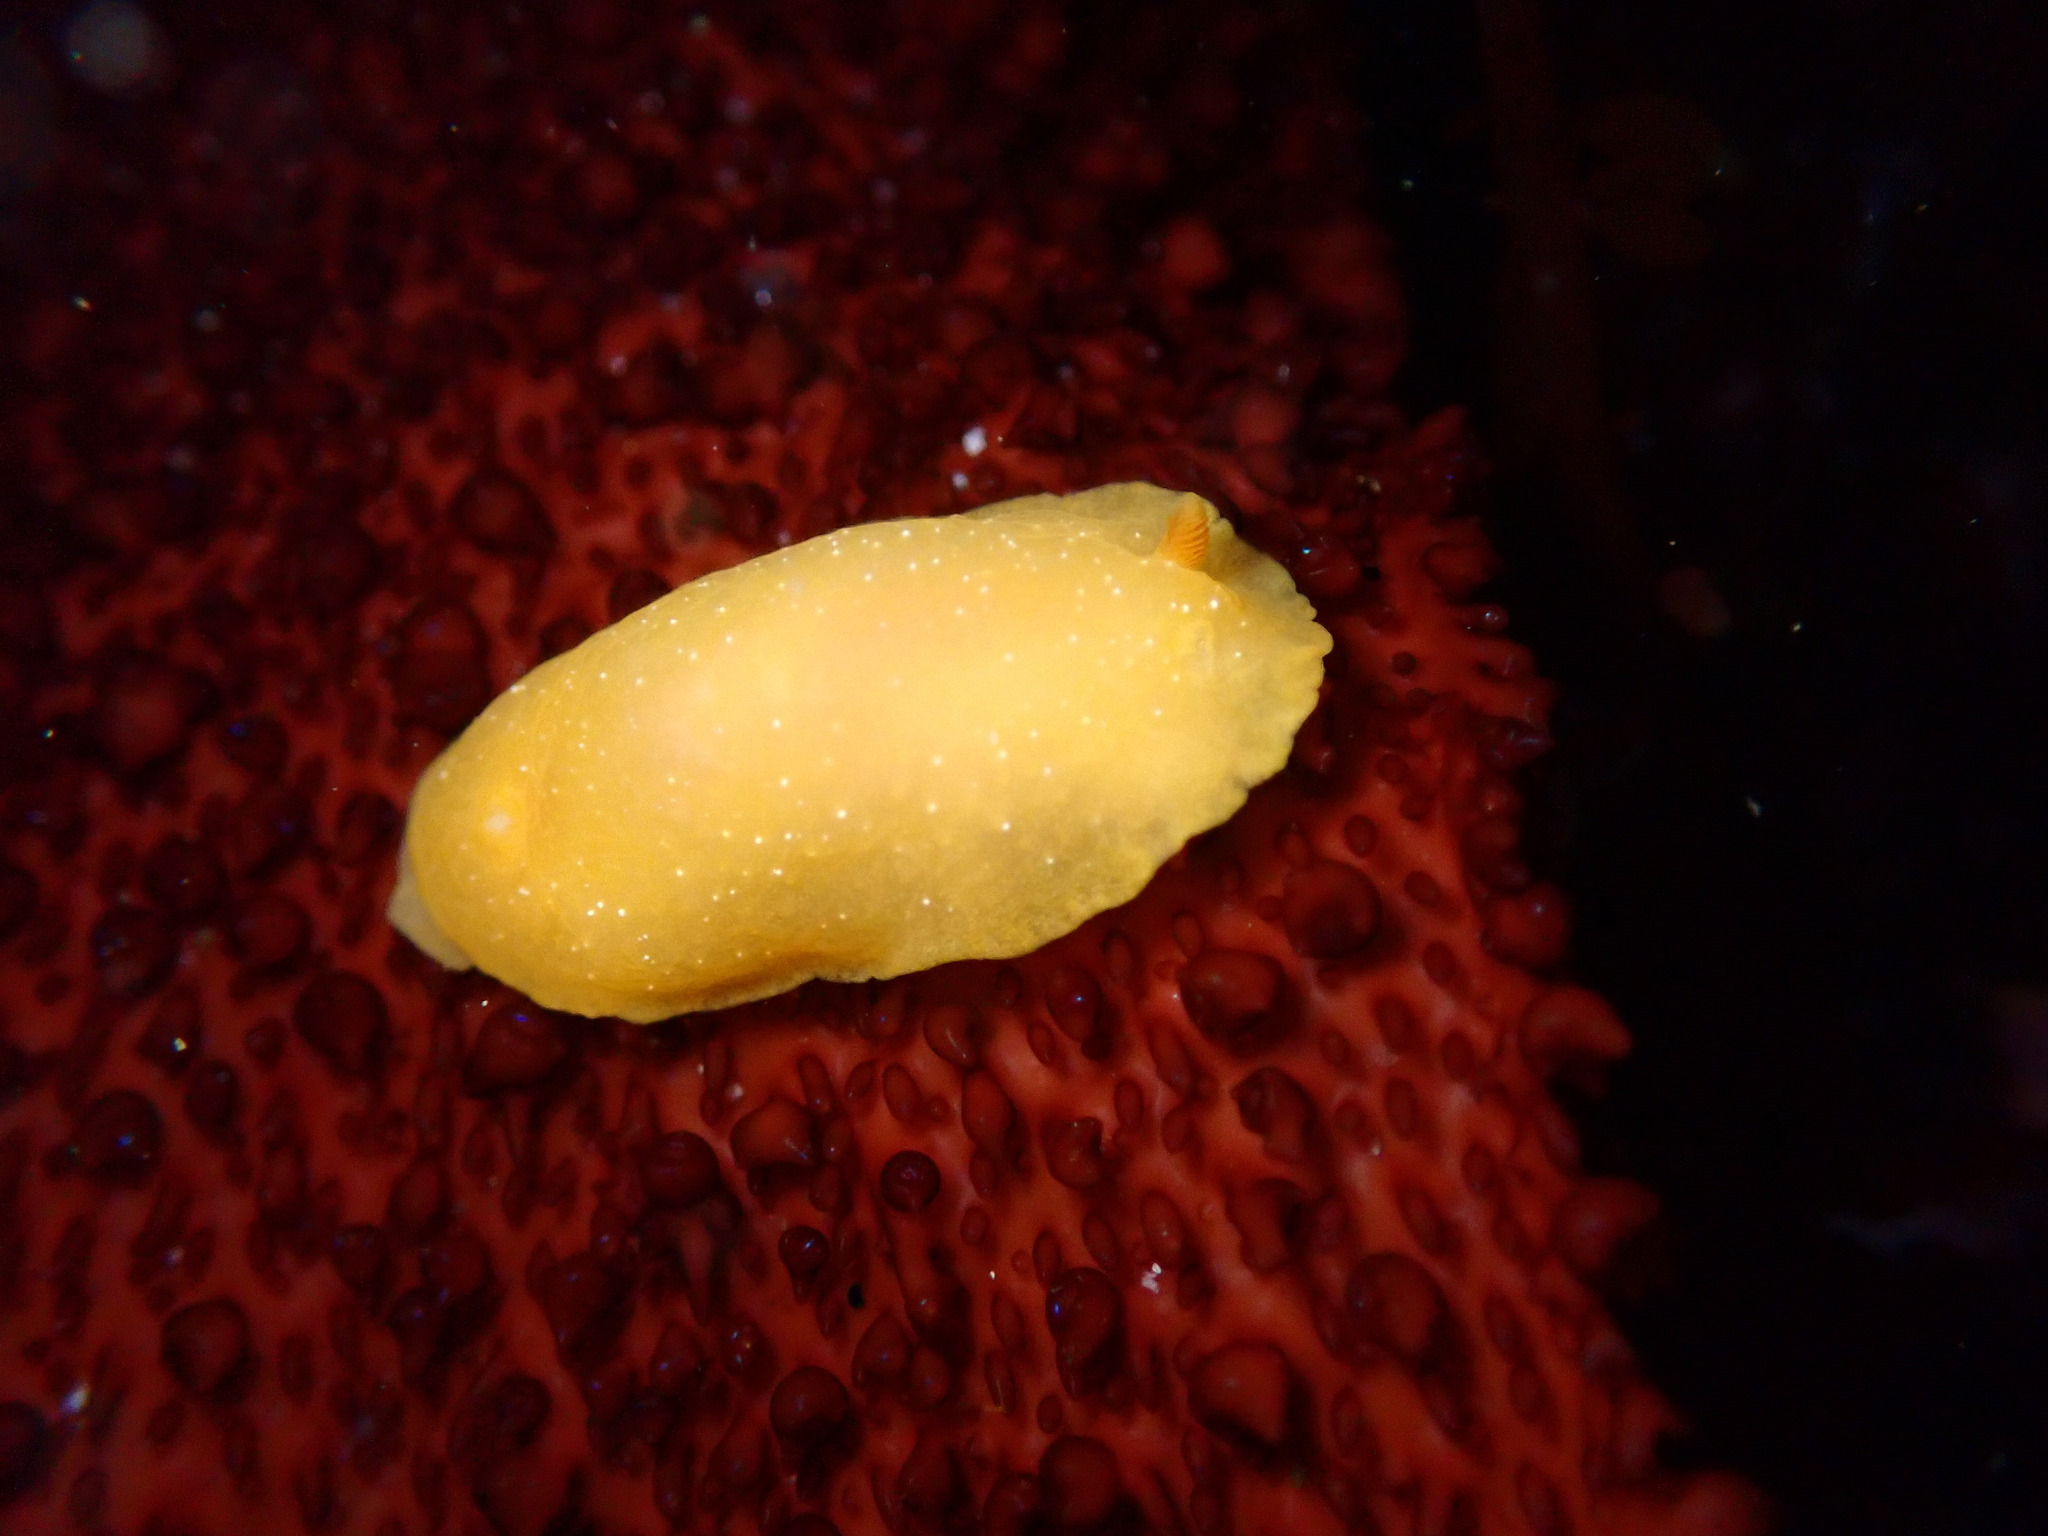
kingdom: Animalia
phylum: Mollusca
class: Gastropoda
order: Nudibranchia
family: Dendrodorididae
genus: Doriopsilla
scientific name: Doriopsilla fulva
